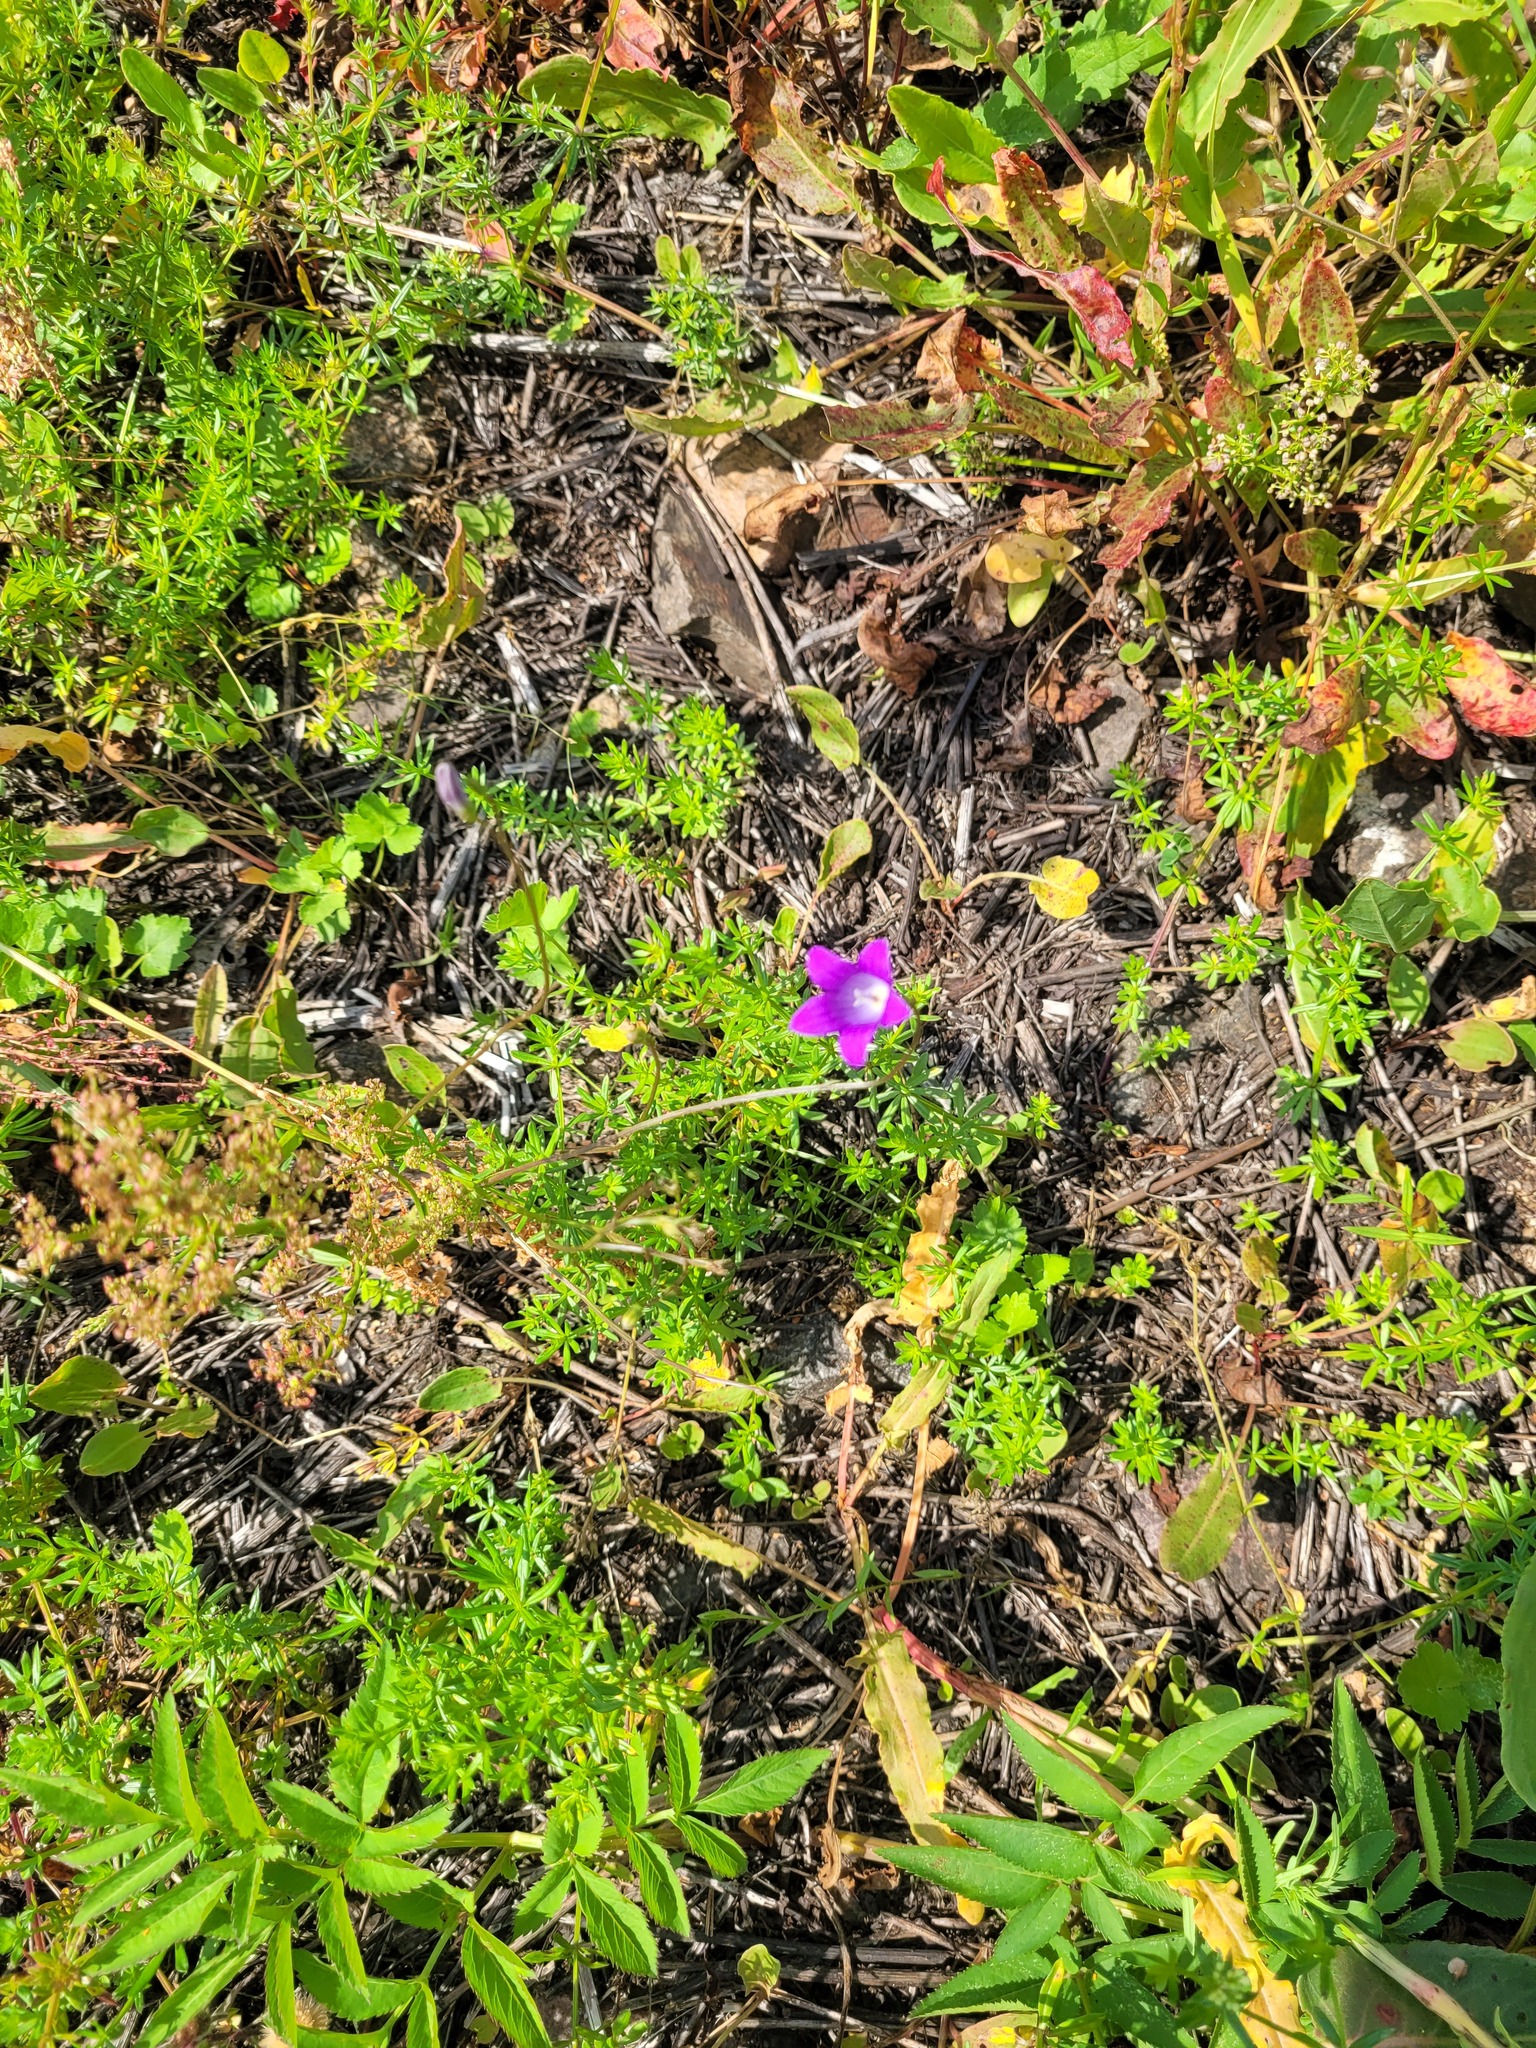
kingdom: Plantae
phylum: Tracheophyta
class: Magnoliopsida
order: Asterales
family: Campanulaceae
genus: Campanula
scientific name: Campanula patula
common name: Spreading bellflower
